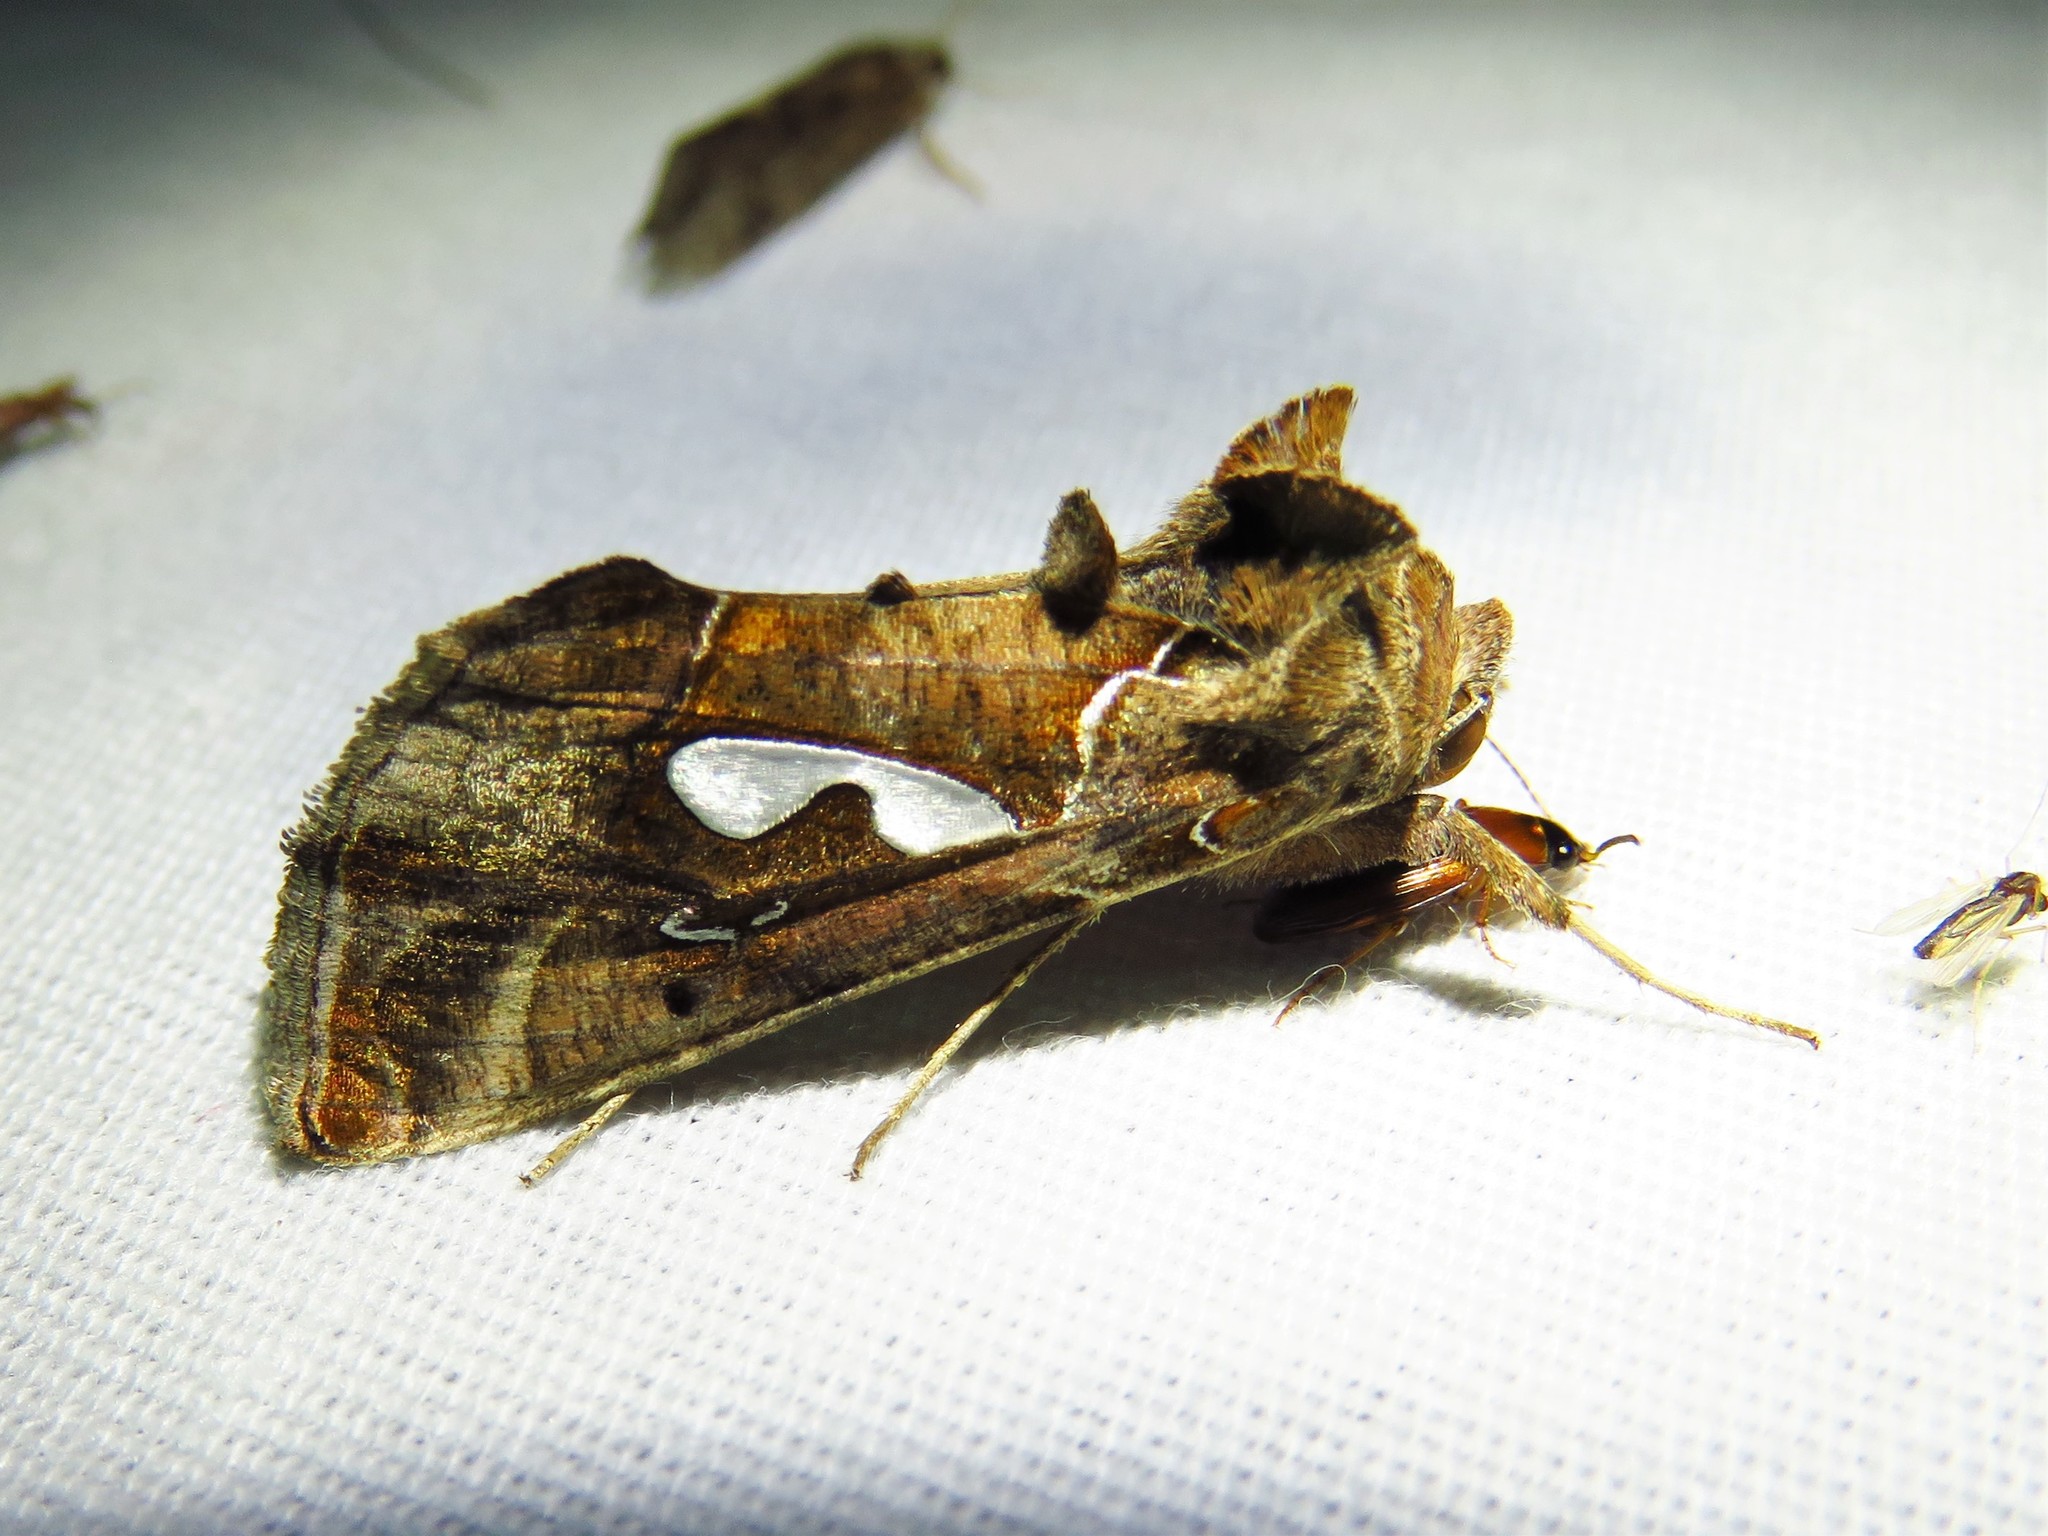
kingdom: Animalia
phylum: Arthropoda
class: Insecta
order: Lepidoptera
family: Noctuidae
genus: Megalographa
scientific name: Megalographa biloba
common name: Cutworm
